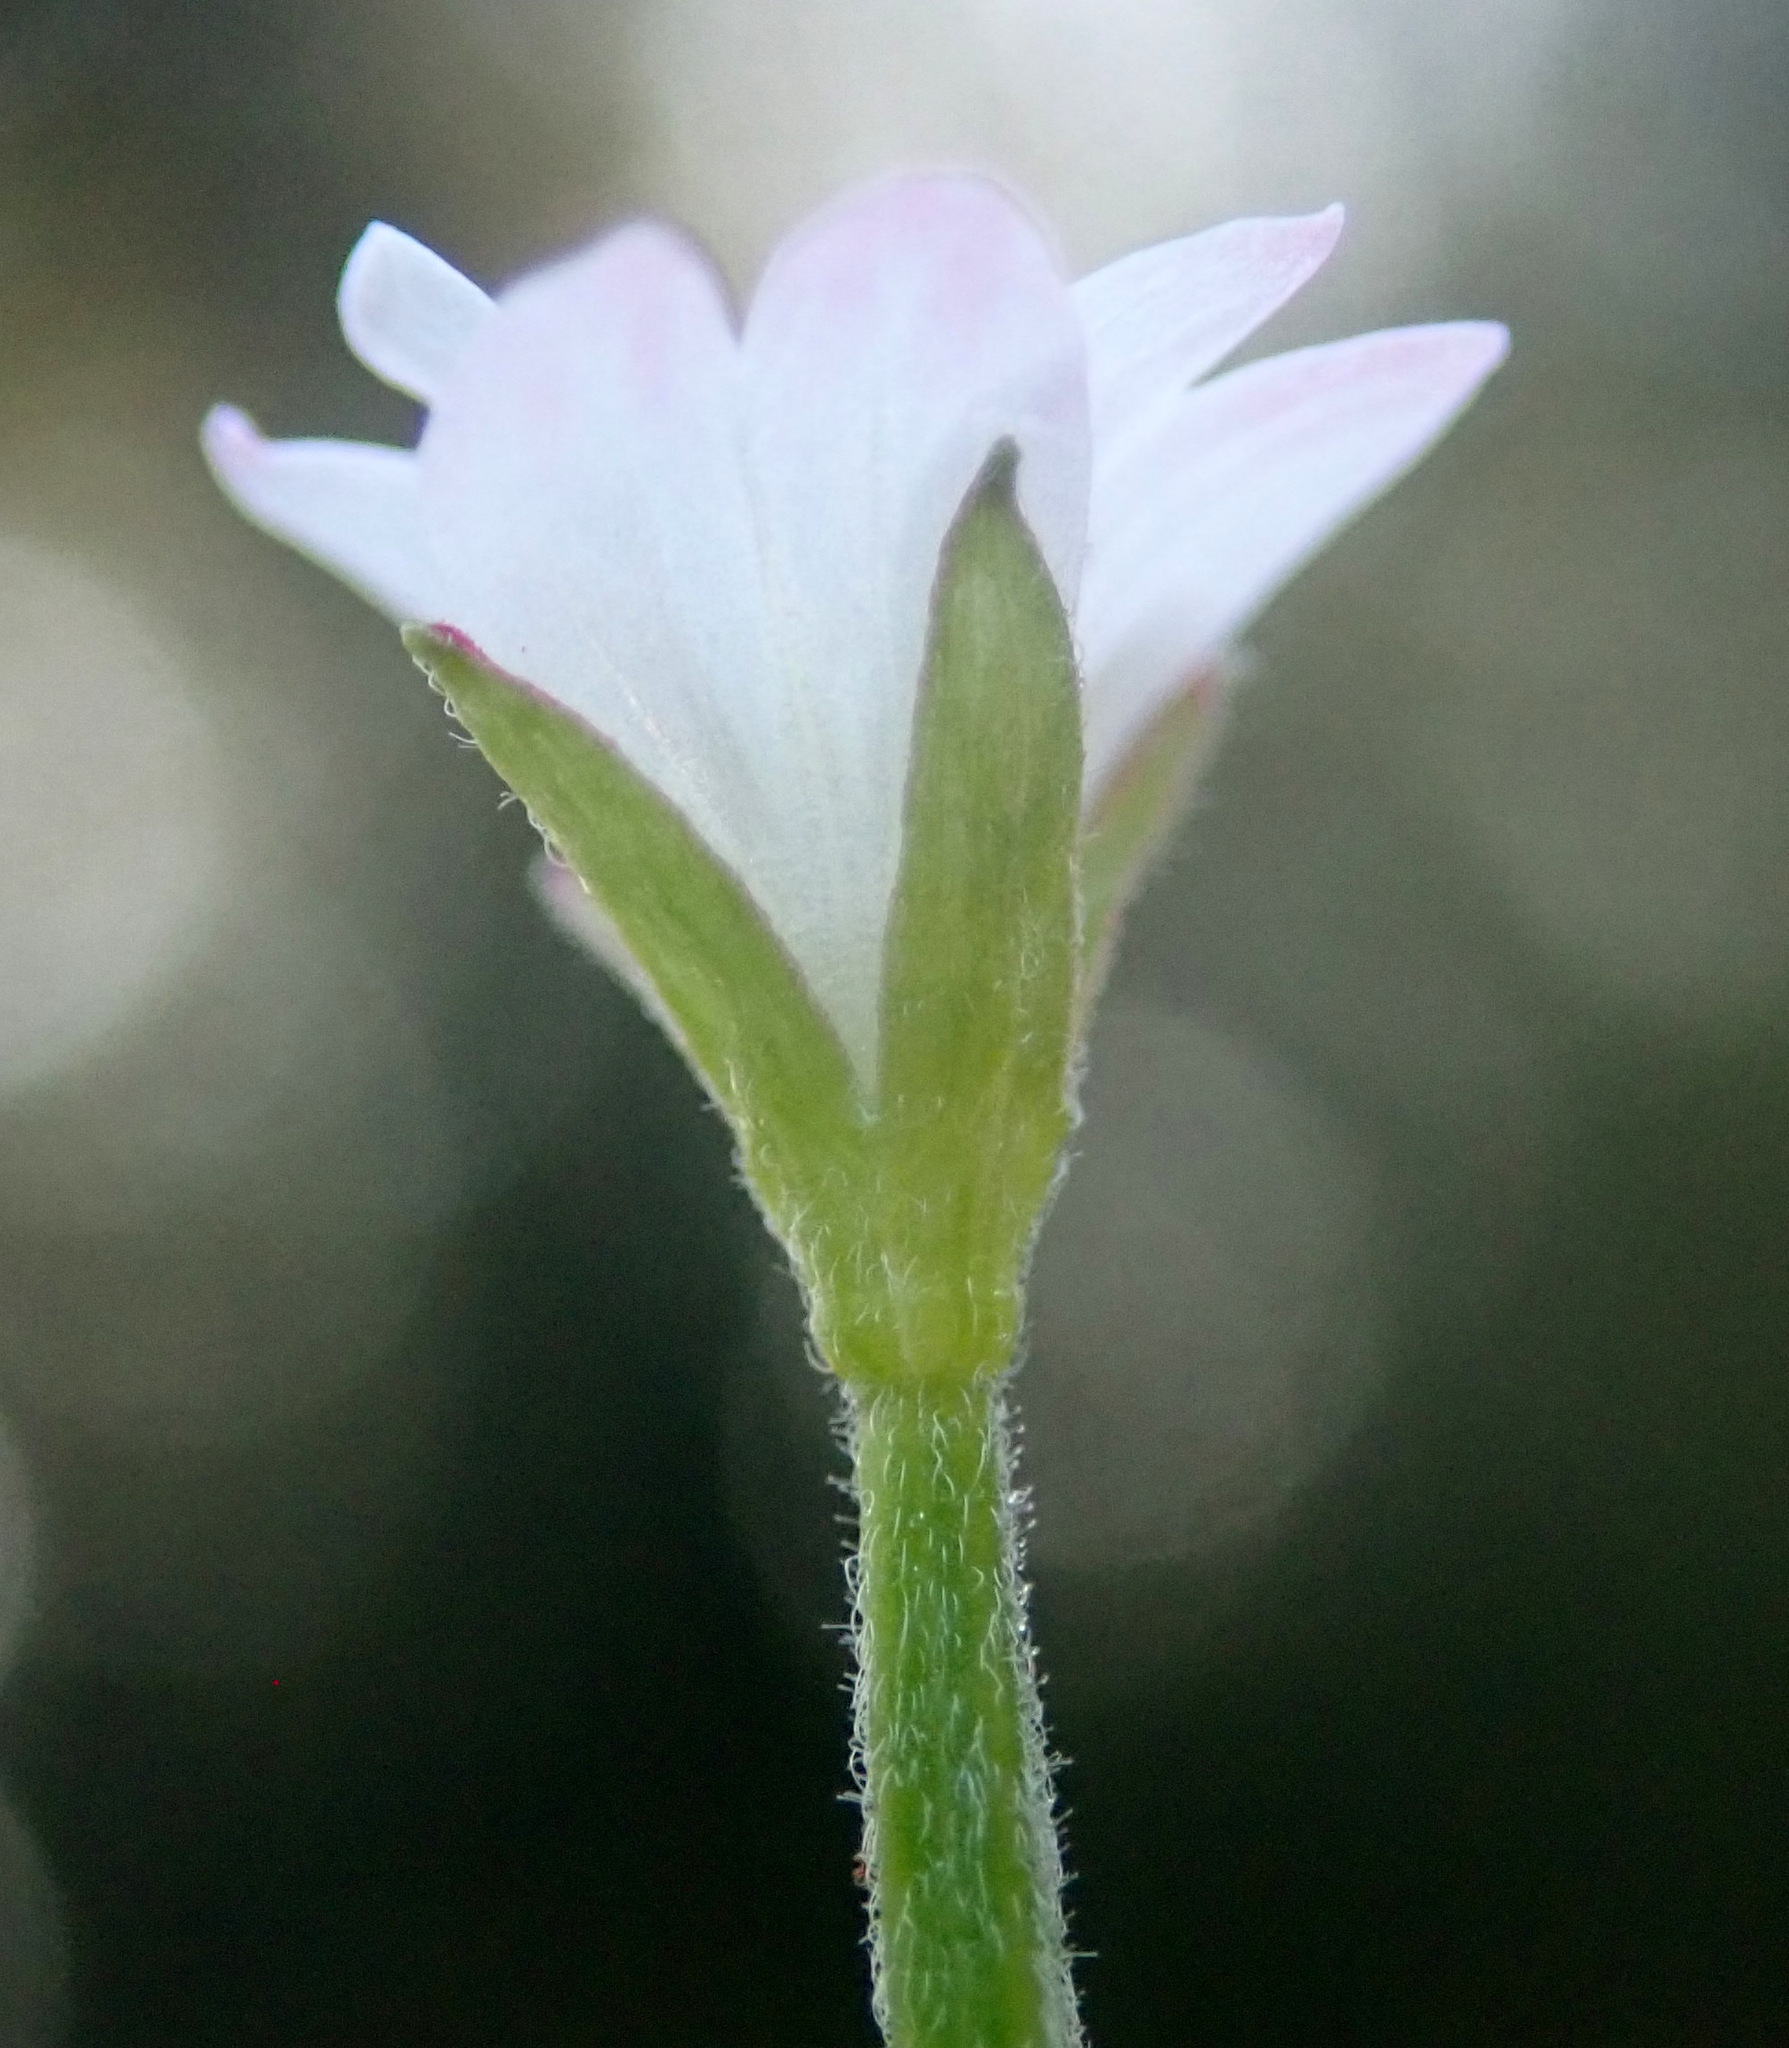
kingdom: Plantae
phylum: Tracheophyta
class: Magnoliopsida
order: Myrtales
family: Onagraceae
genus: Epilobium
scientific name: Epilobium roseum
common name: Pale willowherb
